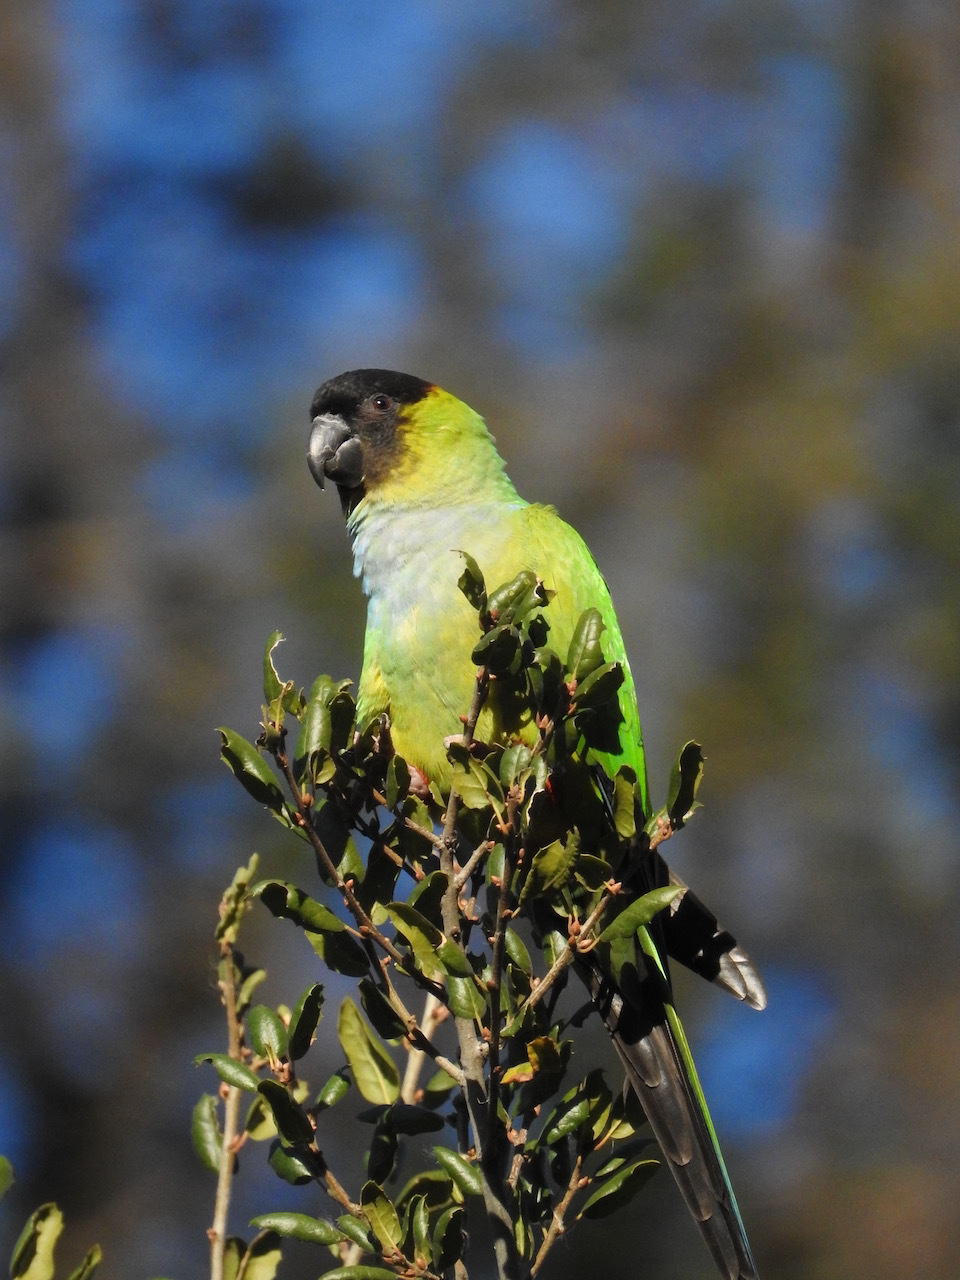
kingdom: Animalia
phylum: Chordata
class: Aves
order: Psittaciformes
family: Psittacidae
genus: Nandayus
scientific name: Nandayus nenday
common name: Nanday parakeet
